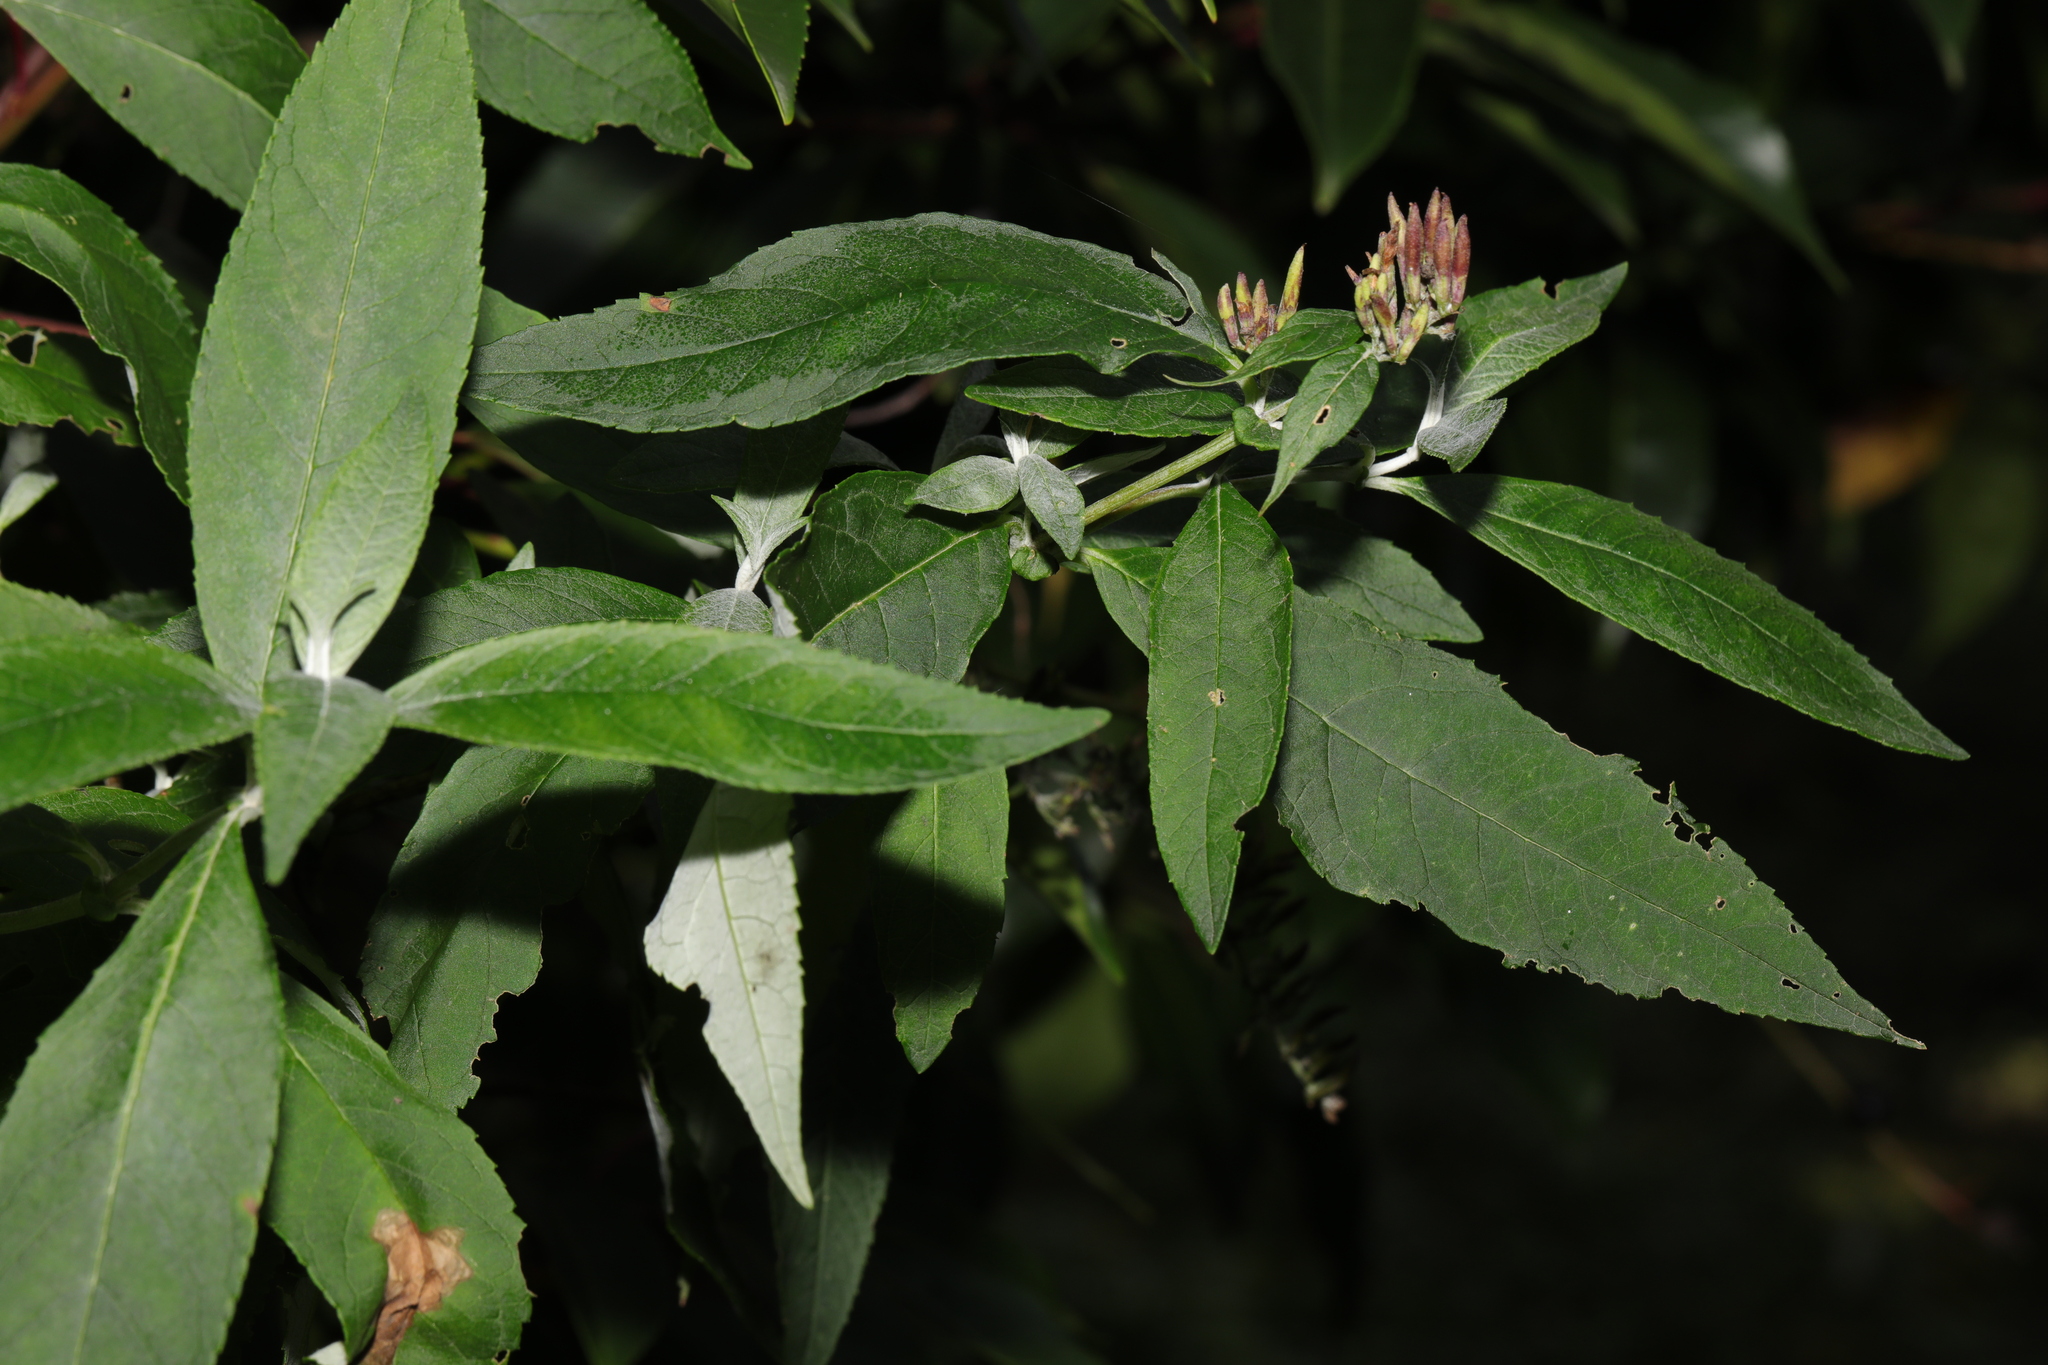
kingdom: Plantae
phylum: Tracheophyta
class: Magnoliopsida
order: Lamiales
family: Scrophulariaceae
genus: Buddleja
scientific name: Buddleja davidii
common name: Butterfly-bush
